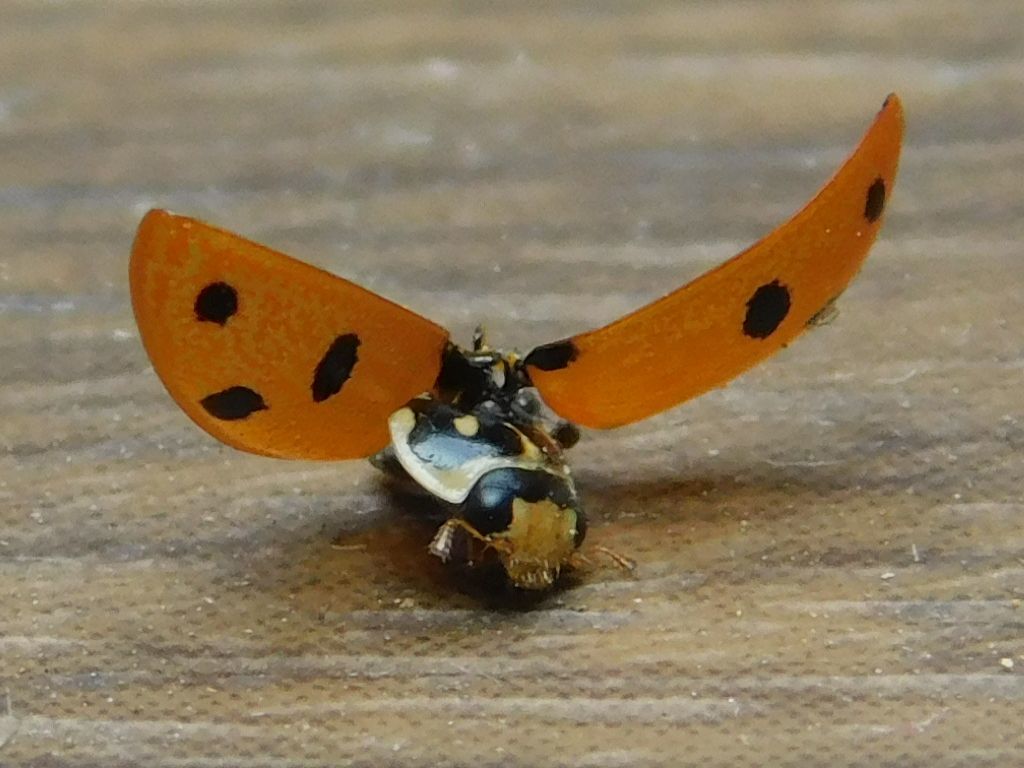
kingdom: Animalia
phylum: Arthropoda
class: Insecta
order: Coleoptera
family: Coccinellidae
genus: Hippodamia
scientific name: Hippodamia variegata
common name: Ladybird beetle
